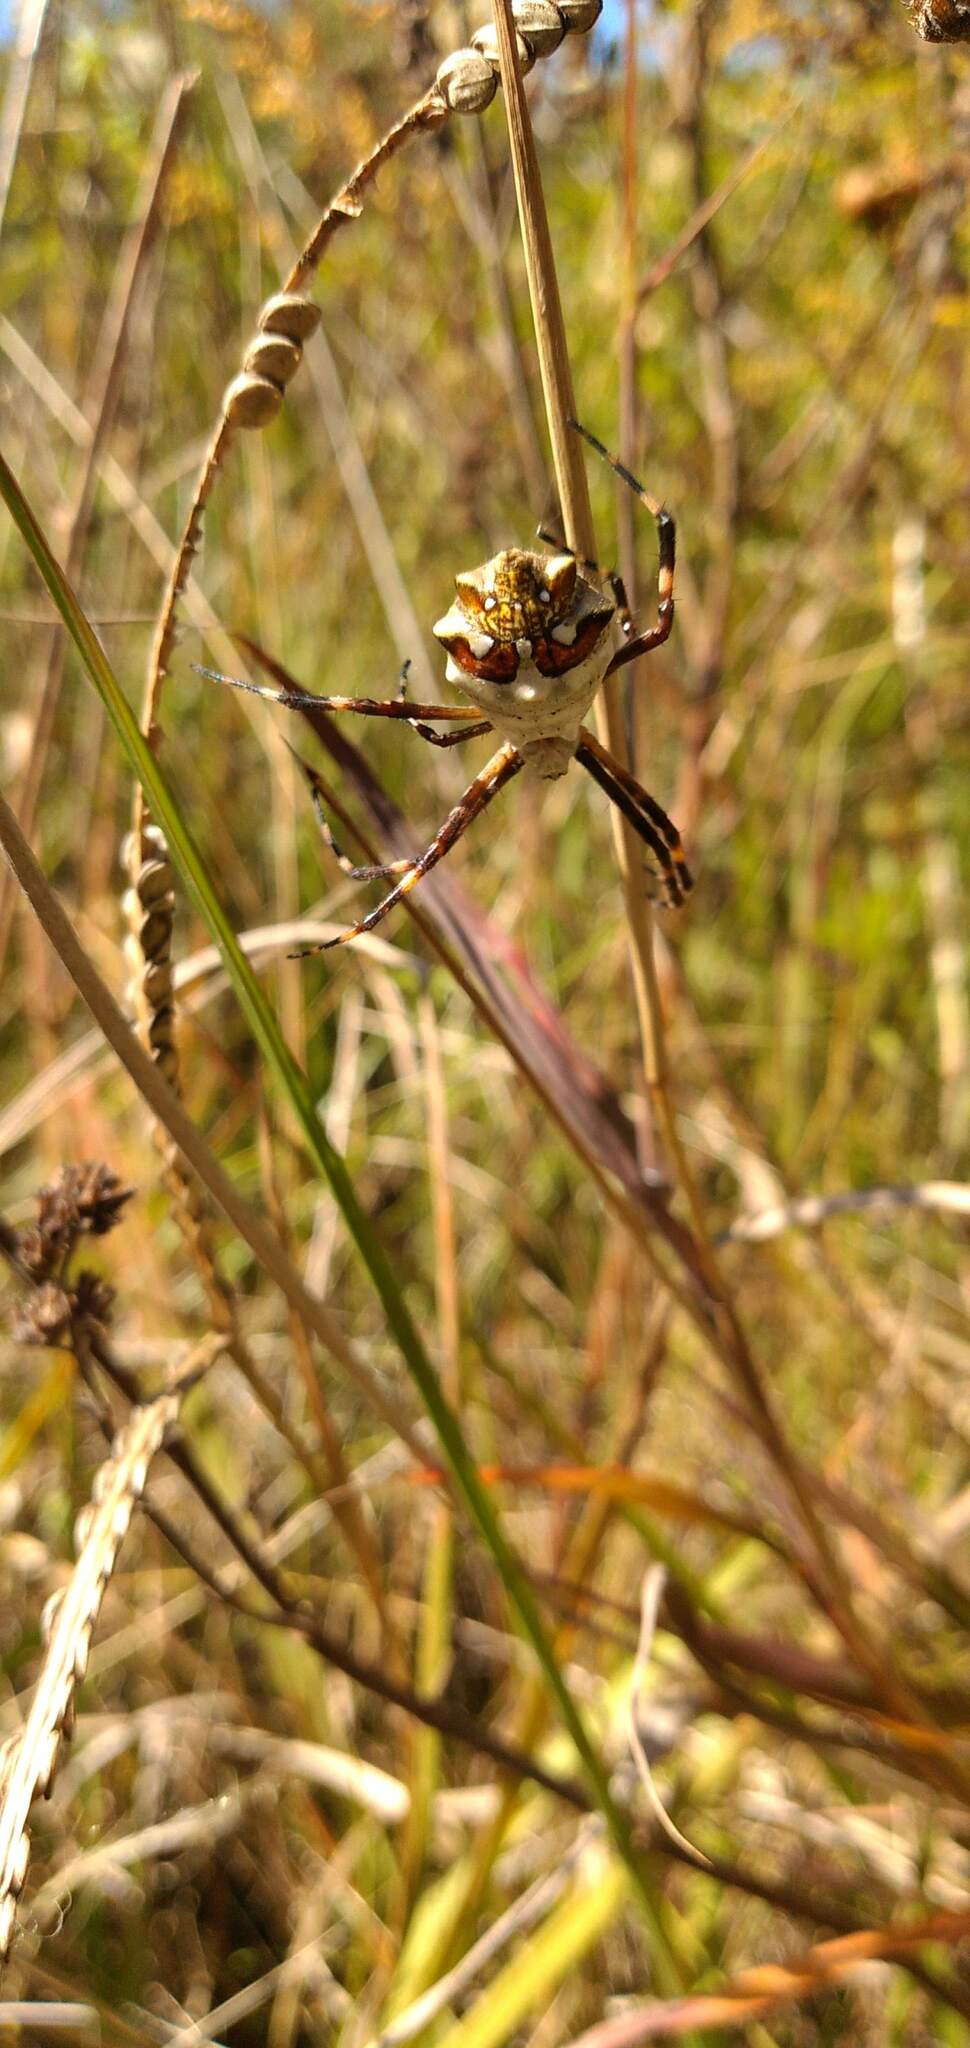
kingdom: Animalia
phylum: Arthropoda
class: Arachnida
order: Araneae
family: Araneidae
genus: Argiope
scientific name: Argiope argentata
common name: Orb weavers
